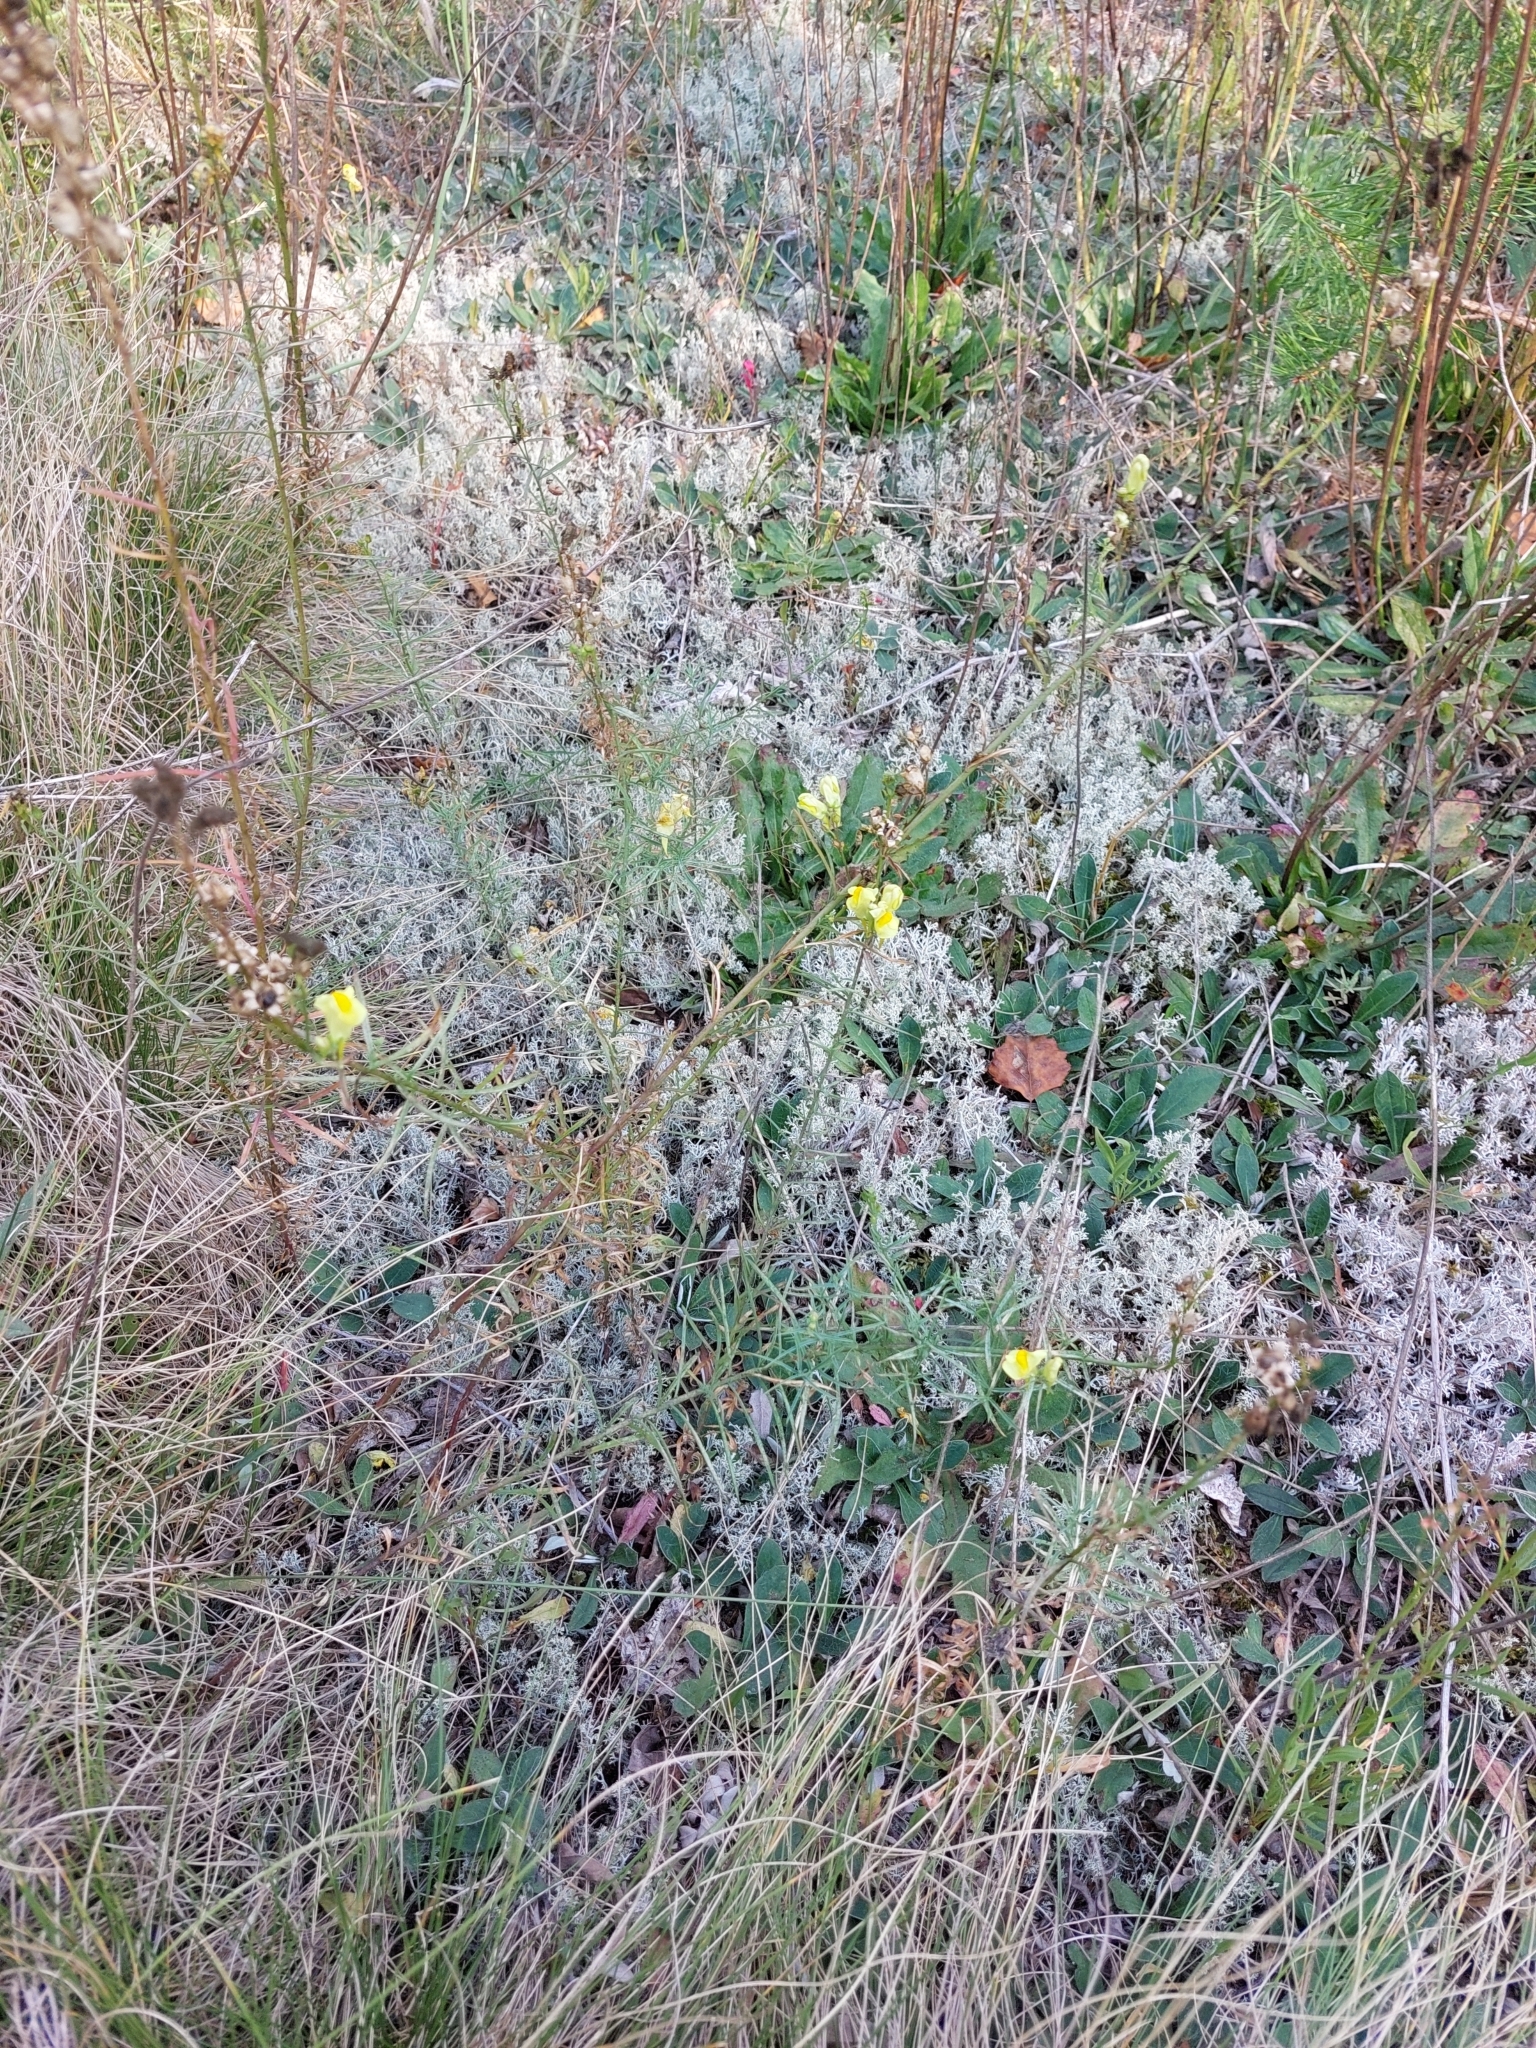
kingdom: Plantae
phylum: Tracheophyta
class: Magnoliopsida
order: Lamiales
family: Plantaginaceae
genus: Linaria
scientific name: Linaria vulgaris
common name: Butter and eggs
